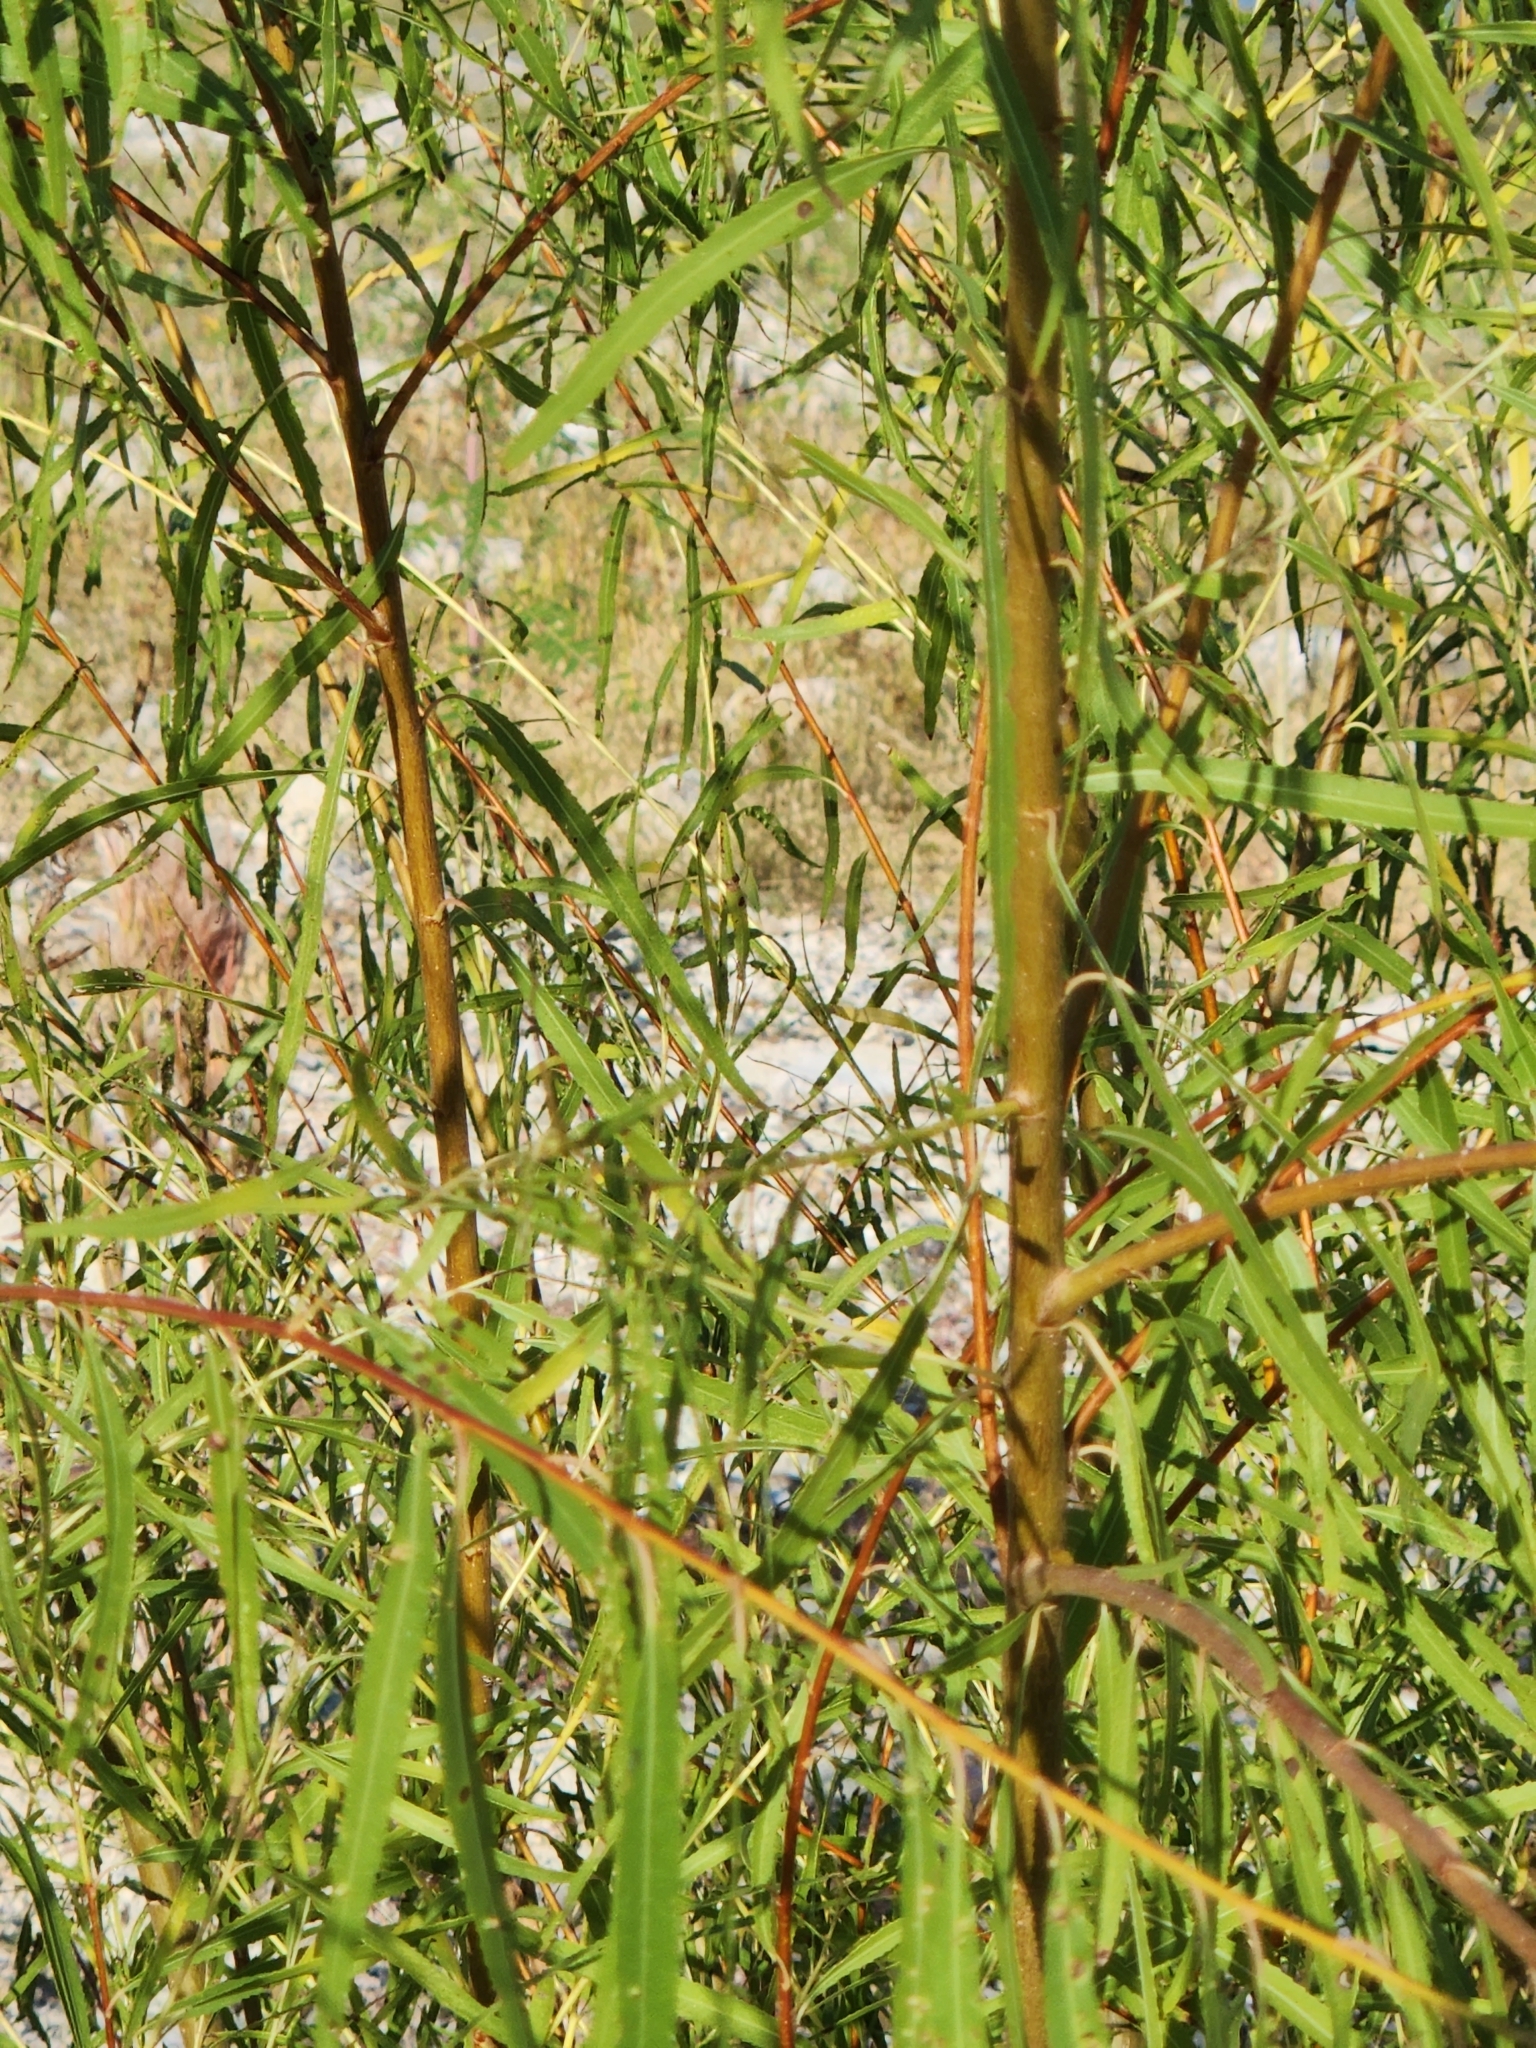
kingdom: Plantae
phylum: Tracheophyta
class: Magnoliopsida
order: Malpighiales
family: Salicaceae
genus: Salix
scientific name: Salix nigra
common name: Black willow
